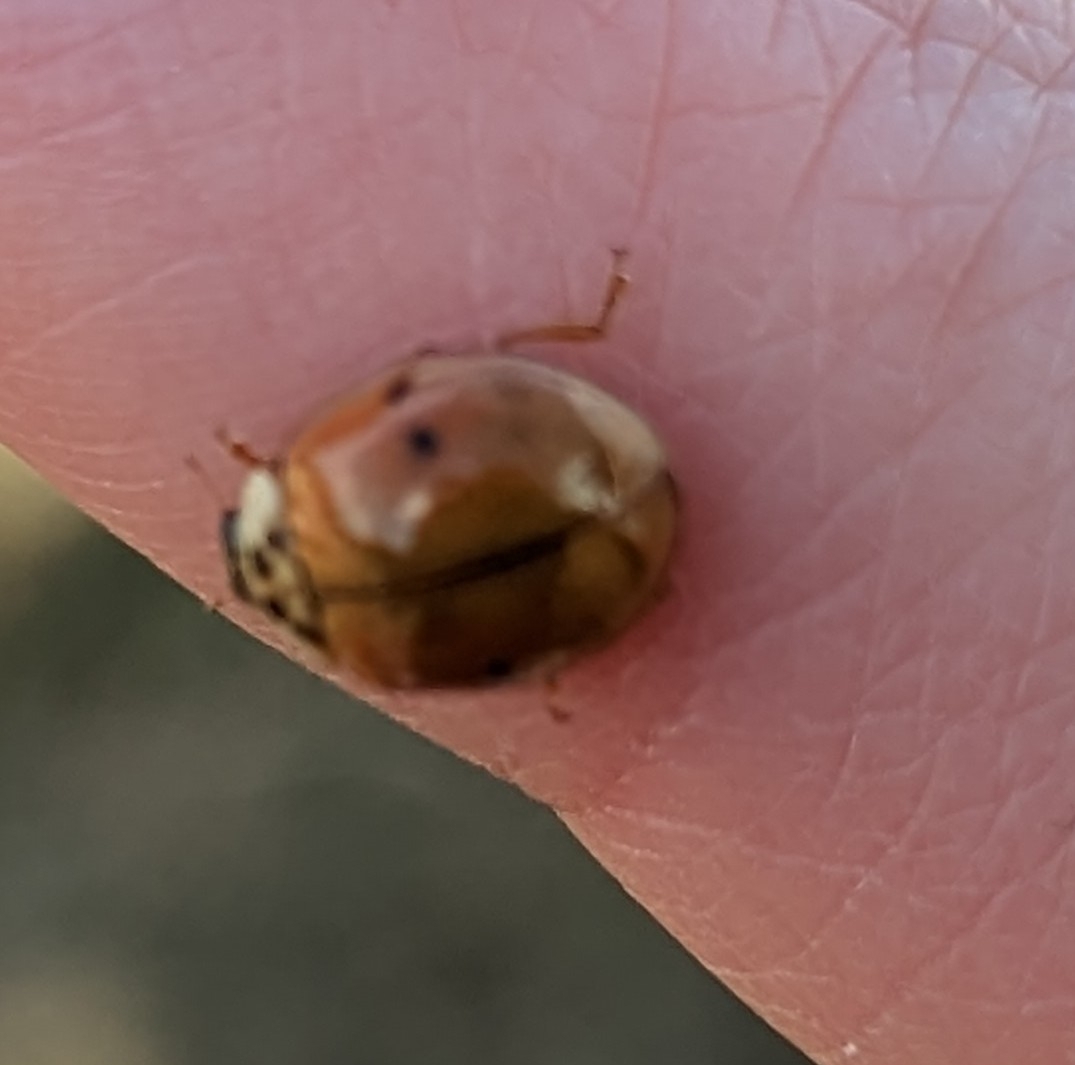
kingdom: Animalia
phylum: Arthropoda
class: Insecta
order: Coleoptera
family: Coccinellidae
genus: Harmonia
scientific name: Harmonia axyridis
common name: Harlequin ladybird
